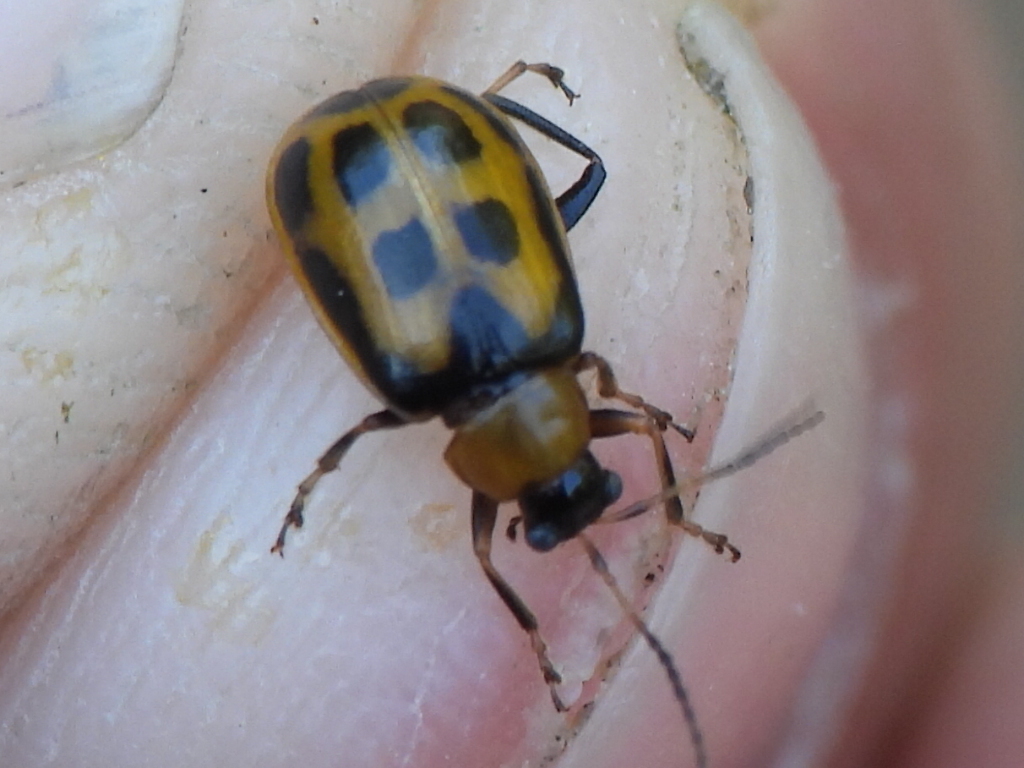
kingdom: Animalia
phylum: Arthropoda
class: Insecta
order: Coleoptera
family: Chrysomelidae
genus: Cerotoma
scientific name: Cerotoma trifurcata
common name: Bean leaf beetle
